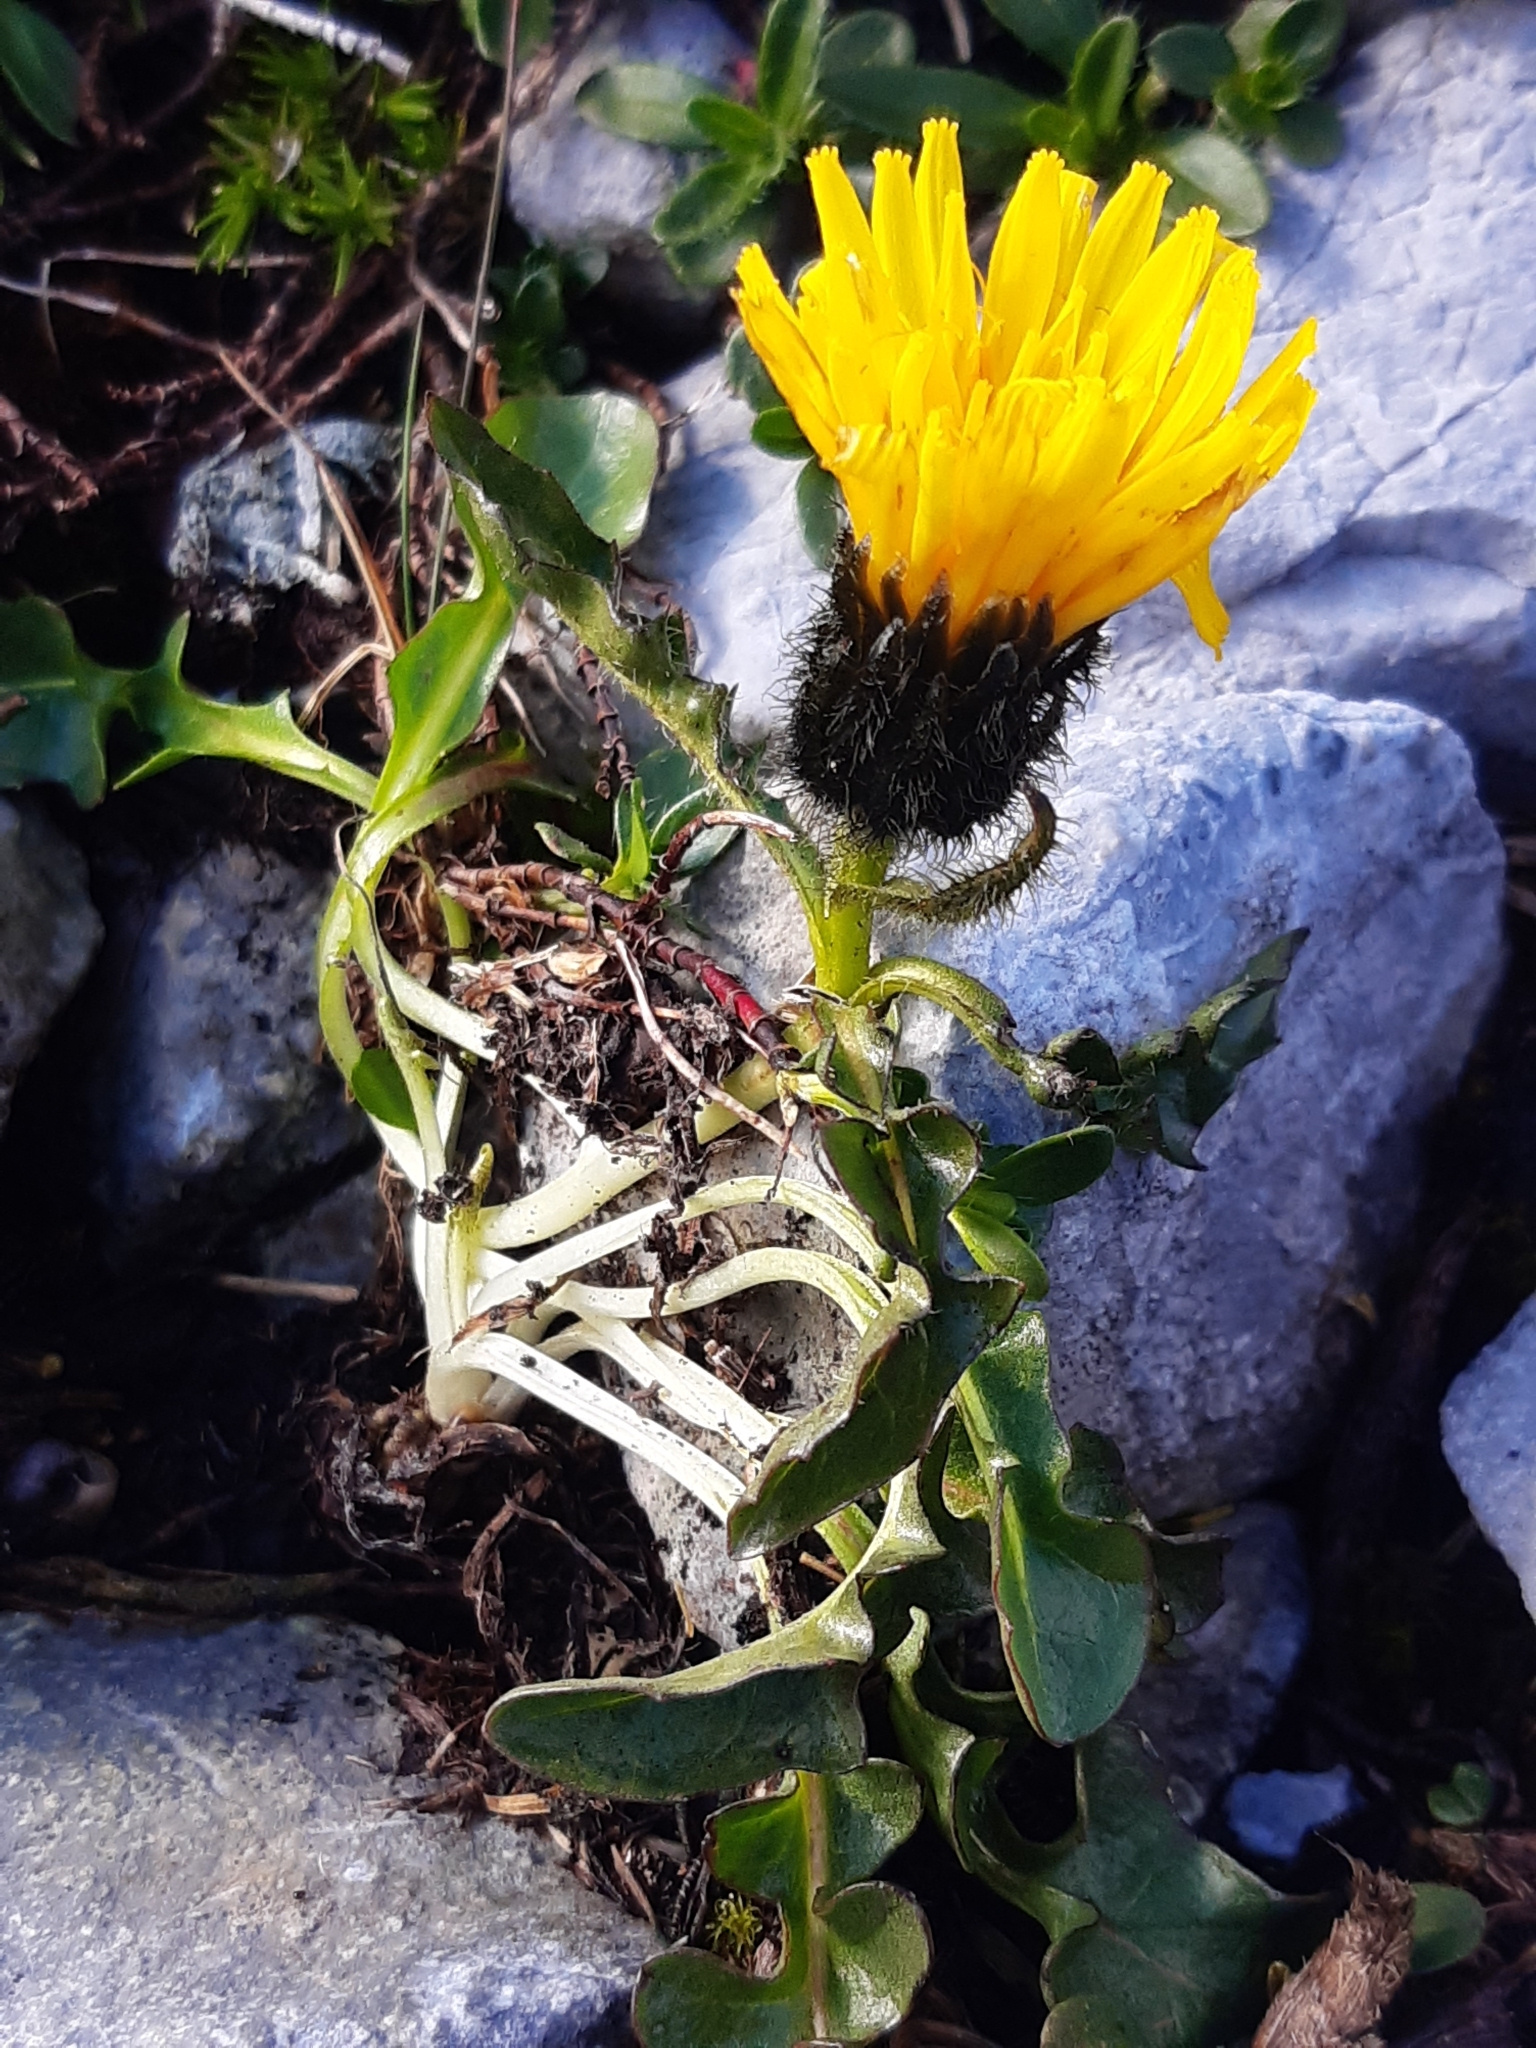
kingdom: Plantae
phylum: Tracheophyta
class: Magnoliopsida
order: Asterales
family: Asteraceae
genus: Crepis
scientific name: Crepis terglouensis
